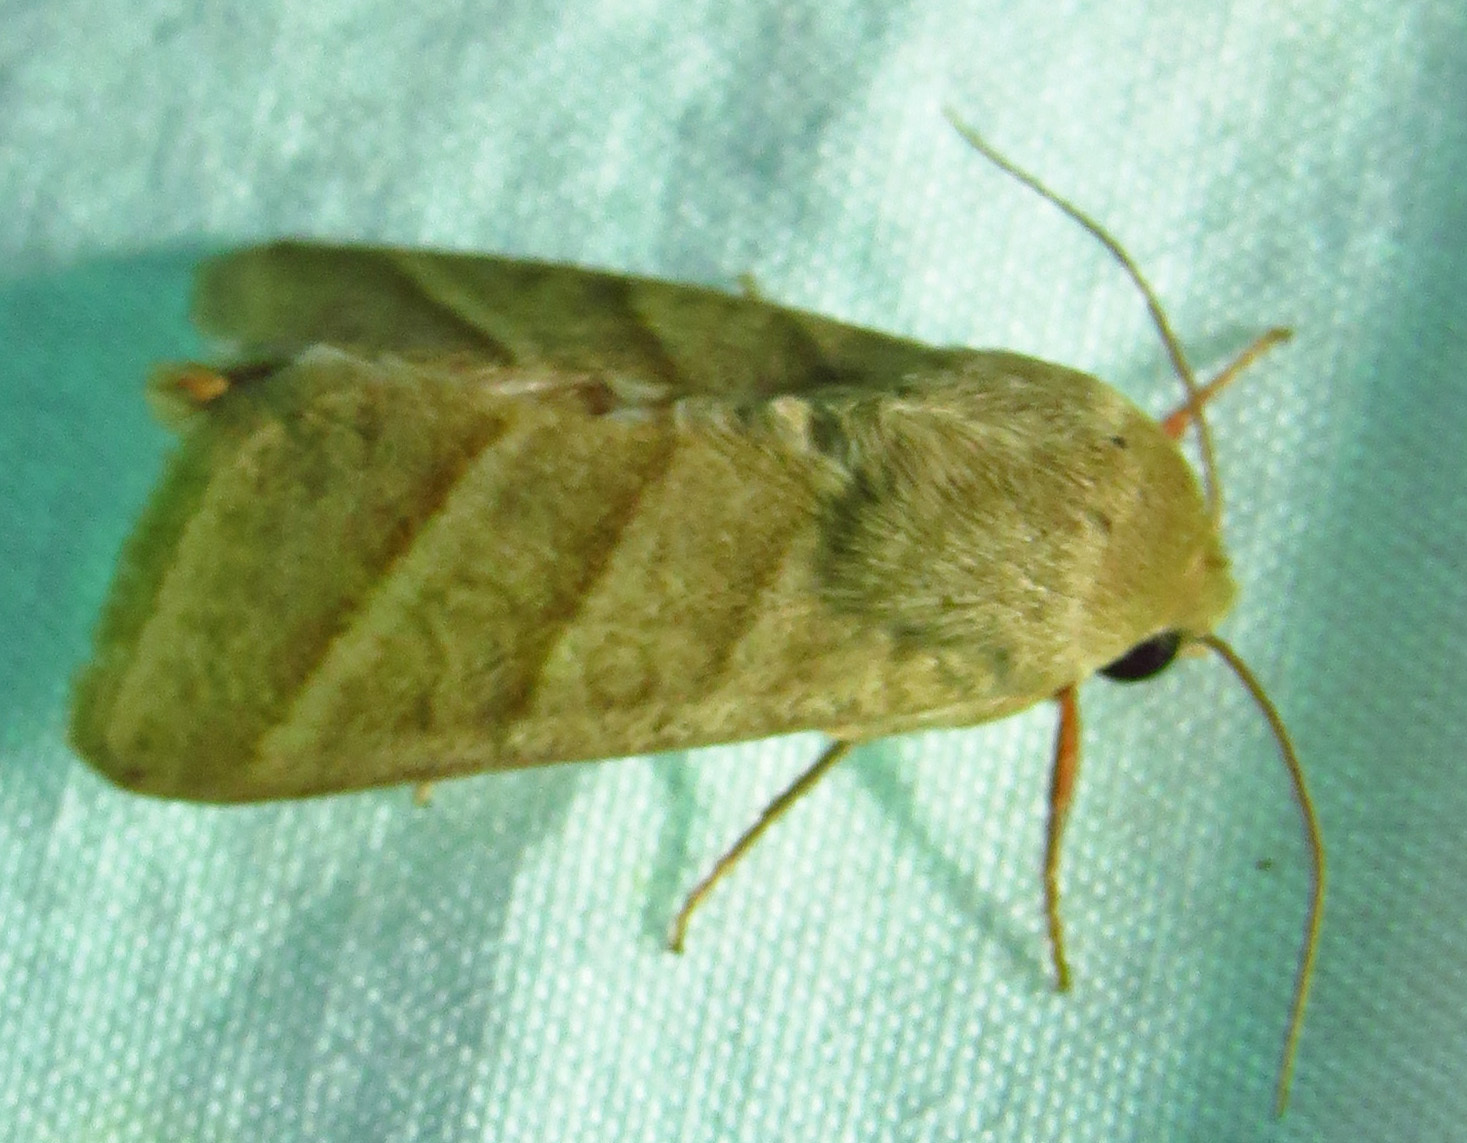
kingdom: Animalia
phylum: Arthropoda
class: Insecta
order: Lepidoptera
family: Noctuidae
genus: Chloridea
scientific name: Chloridea virescens
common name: Tobacco budworm
